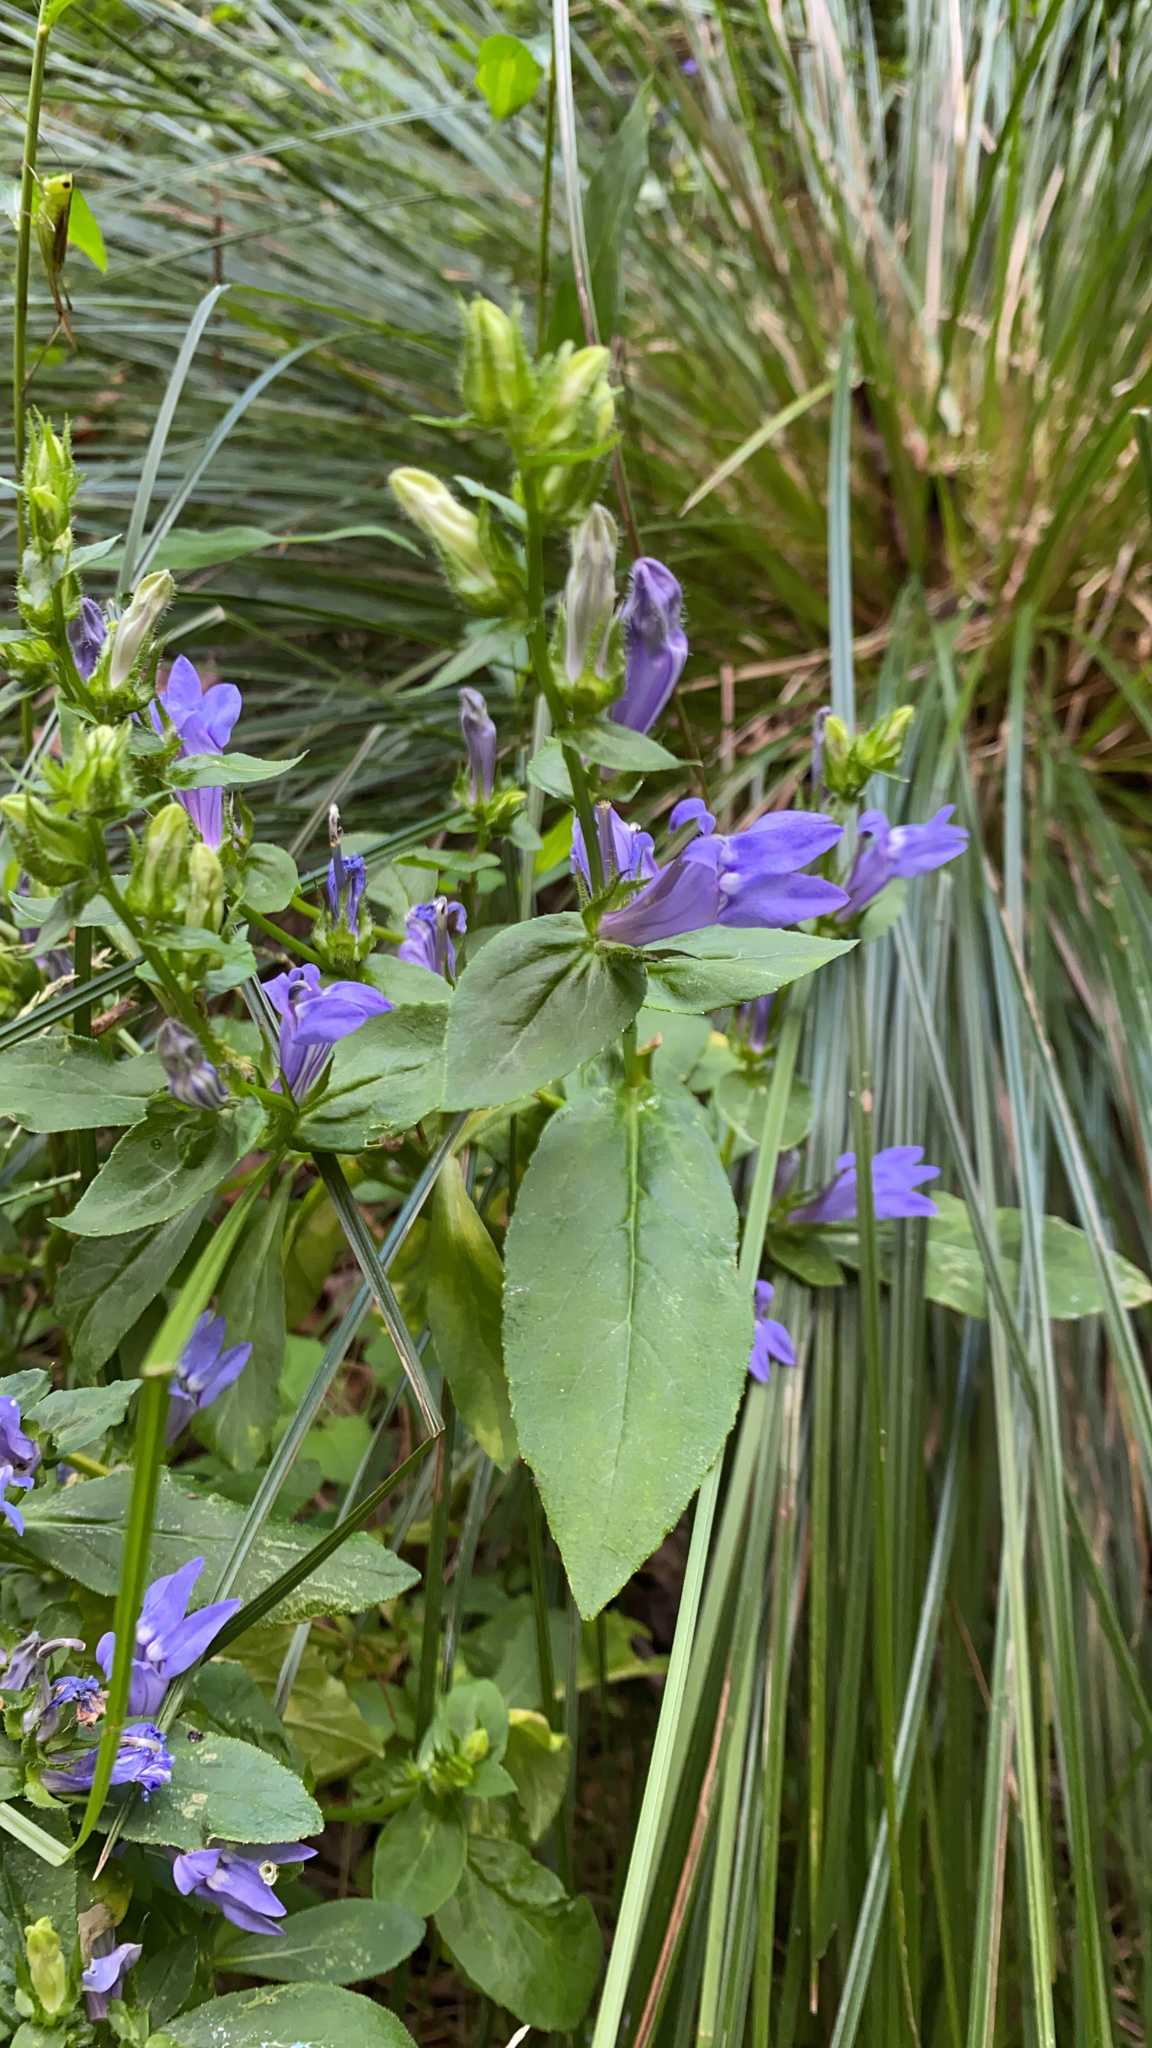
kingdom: Plantae
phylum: Tracheophyta
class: Magnoliopsida
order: Asterales
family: Campanulaceae
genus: Lobelia
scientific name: Lobelia siphilitica
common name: Great lobelia
